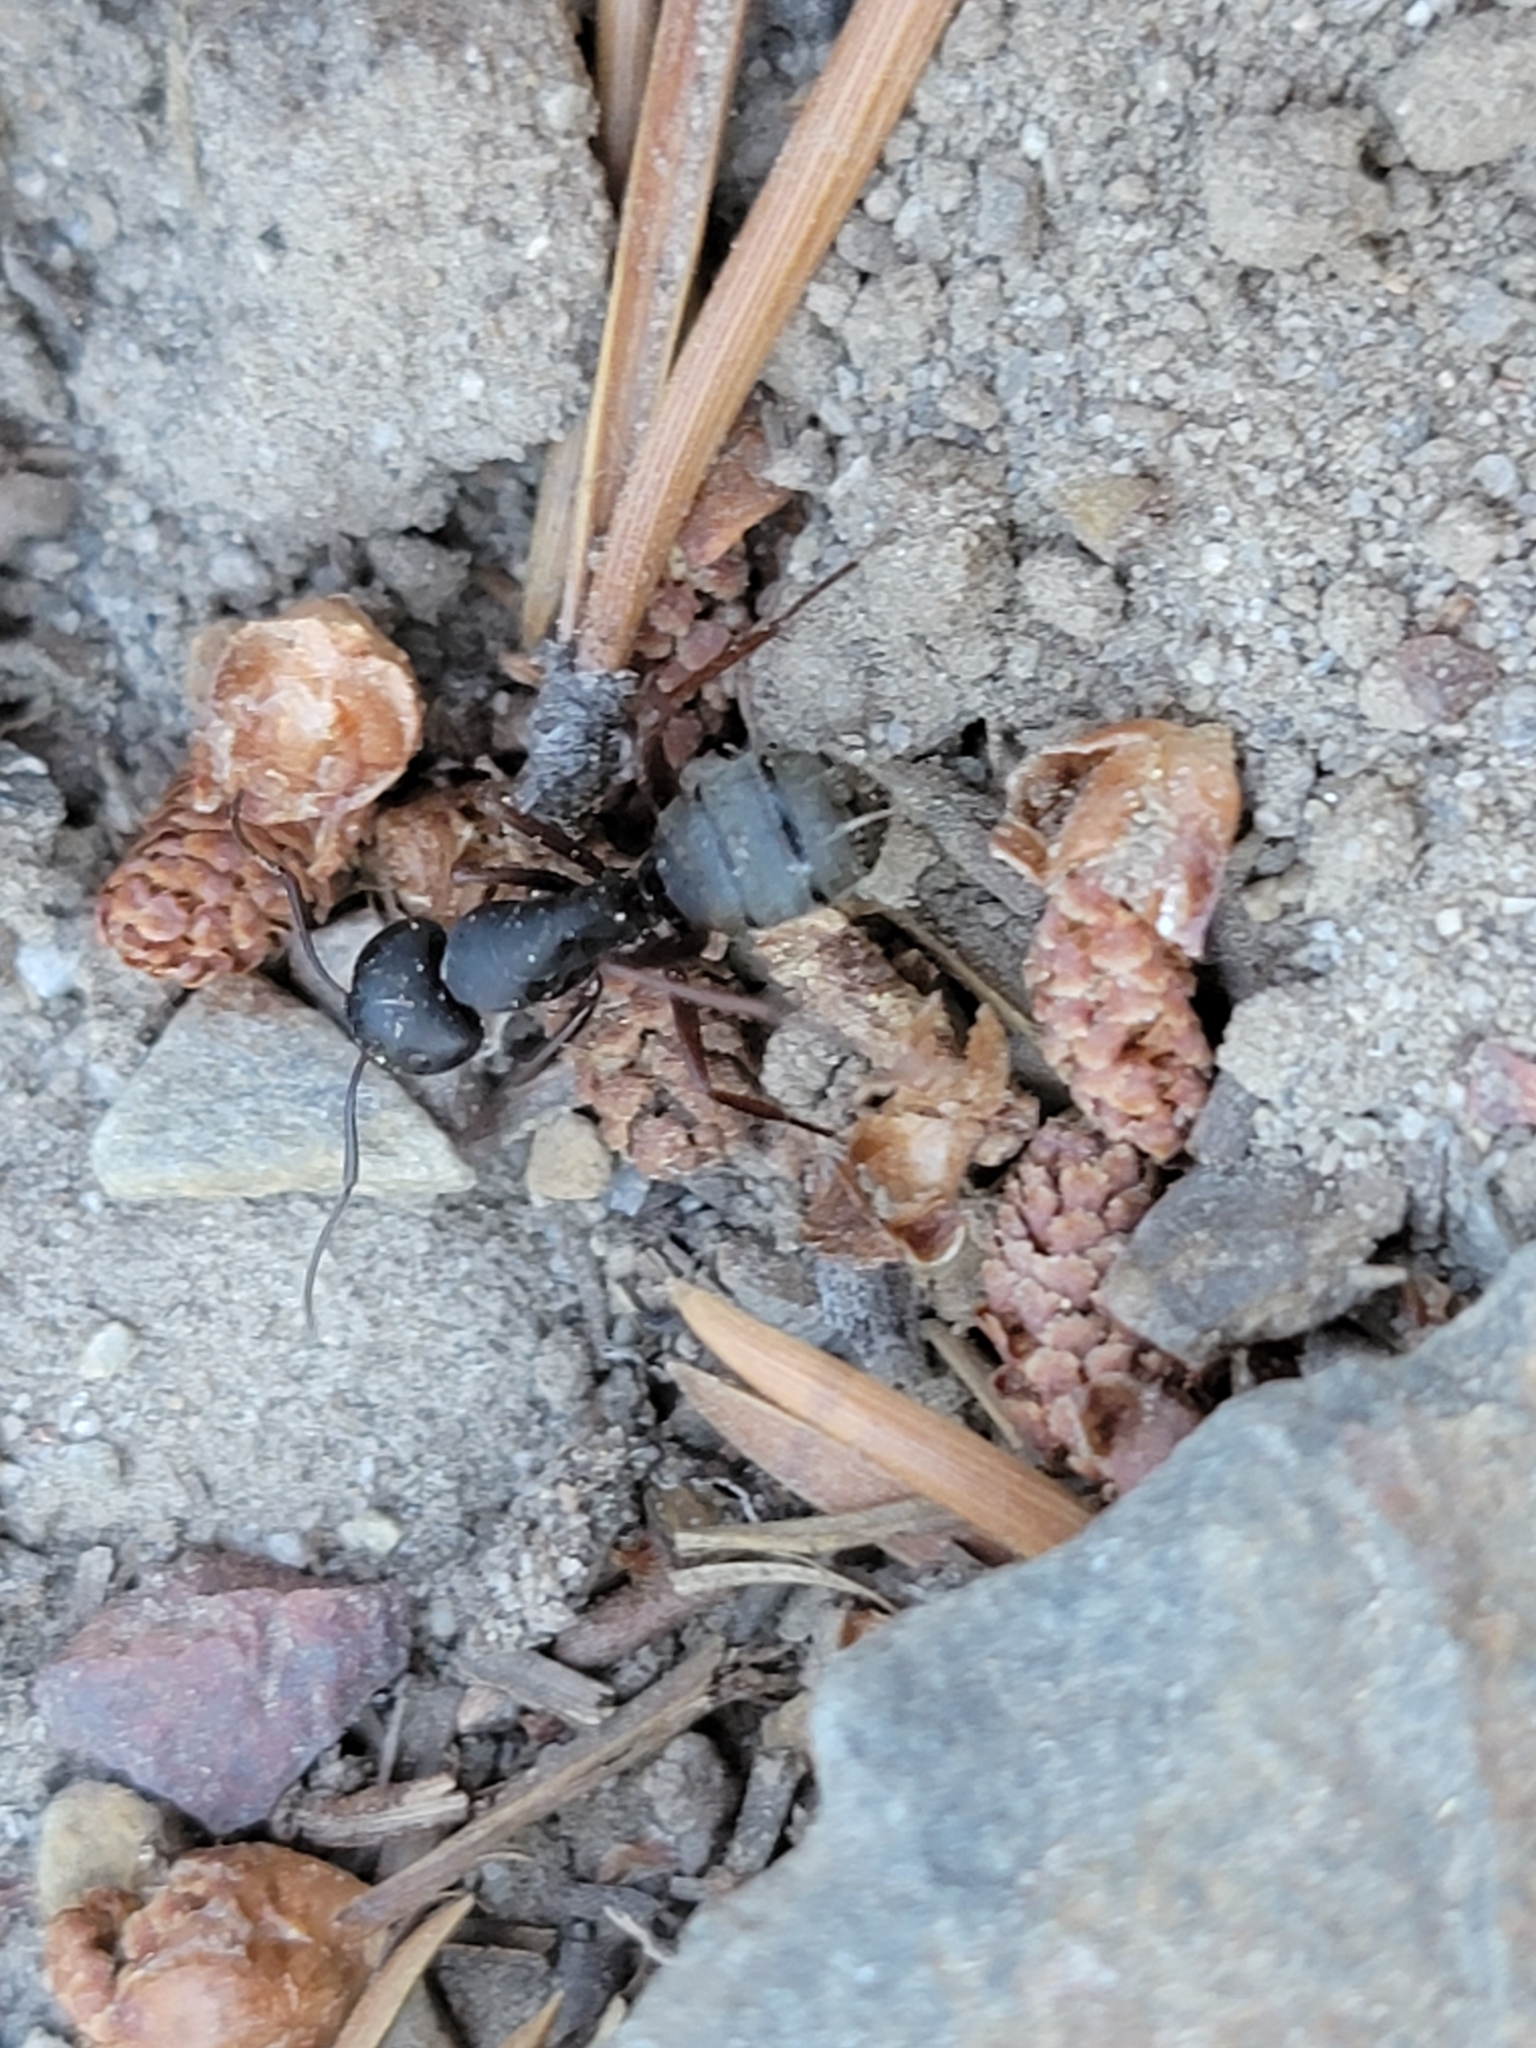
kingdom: Animalia
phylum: Arthropoda
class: Insecta
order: Hymenoptera
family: Formicidae
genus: Camponotus
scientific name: Camponotus modoc
